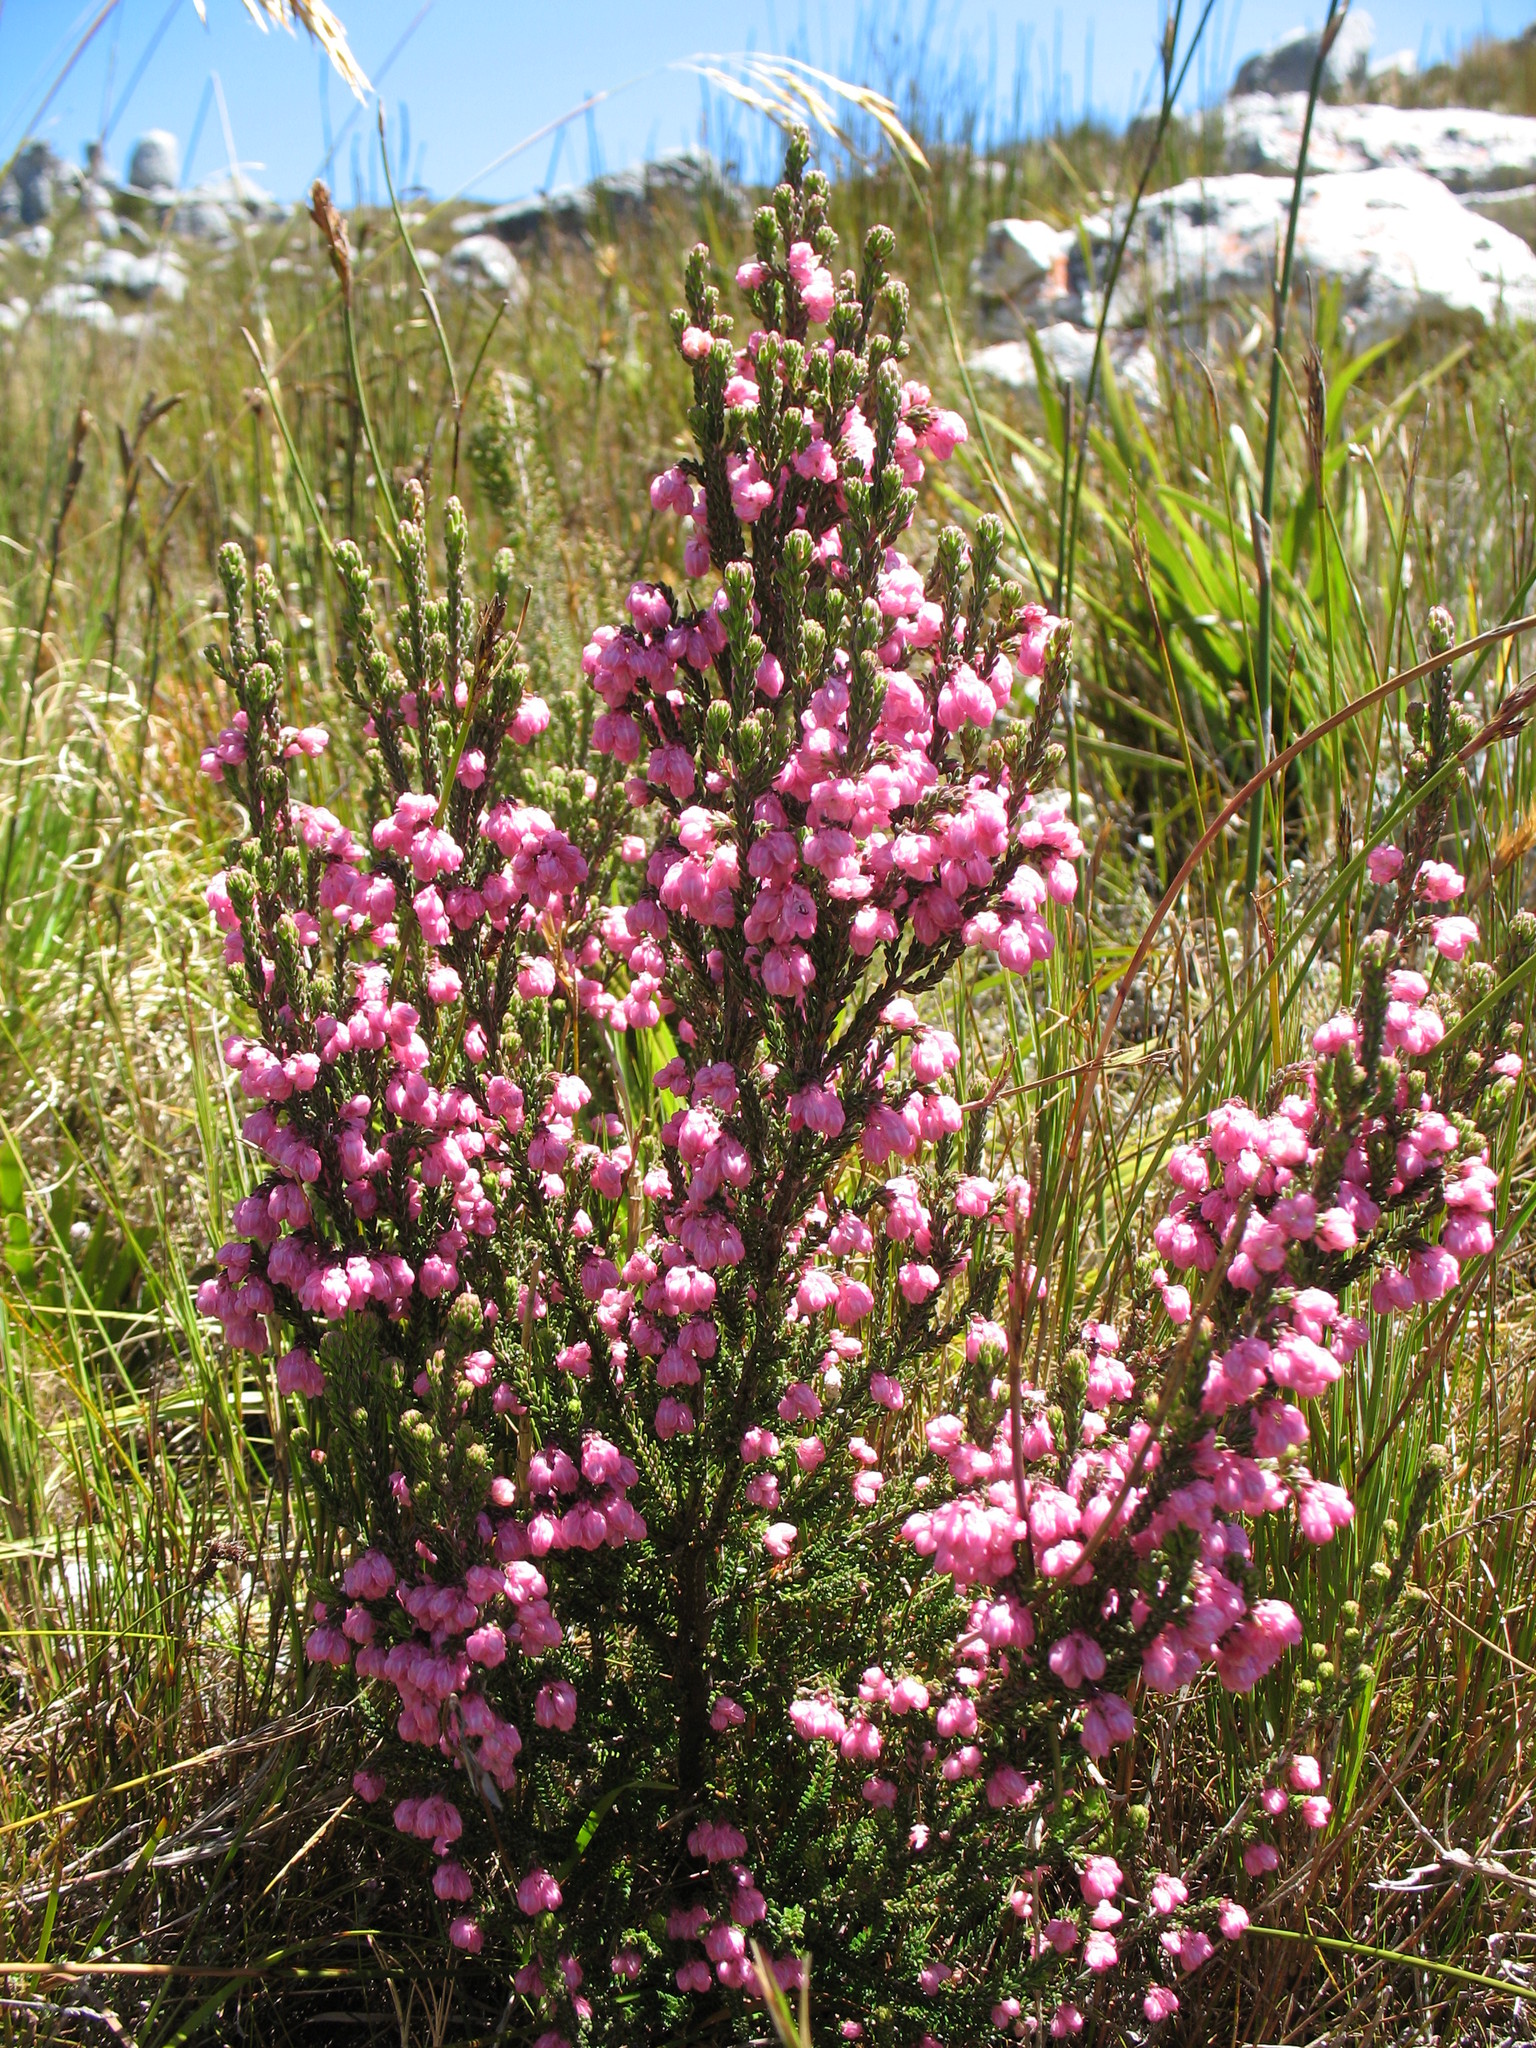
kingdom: Plantae
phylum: Tracheophyta
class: Magnoliopsida
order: Ericales
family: Ericaceae
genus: Erica
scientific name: Erica tegulifolia
